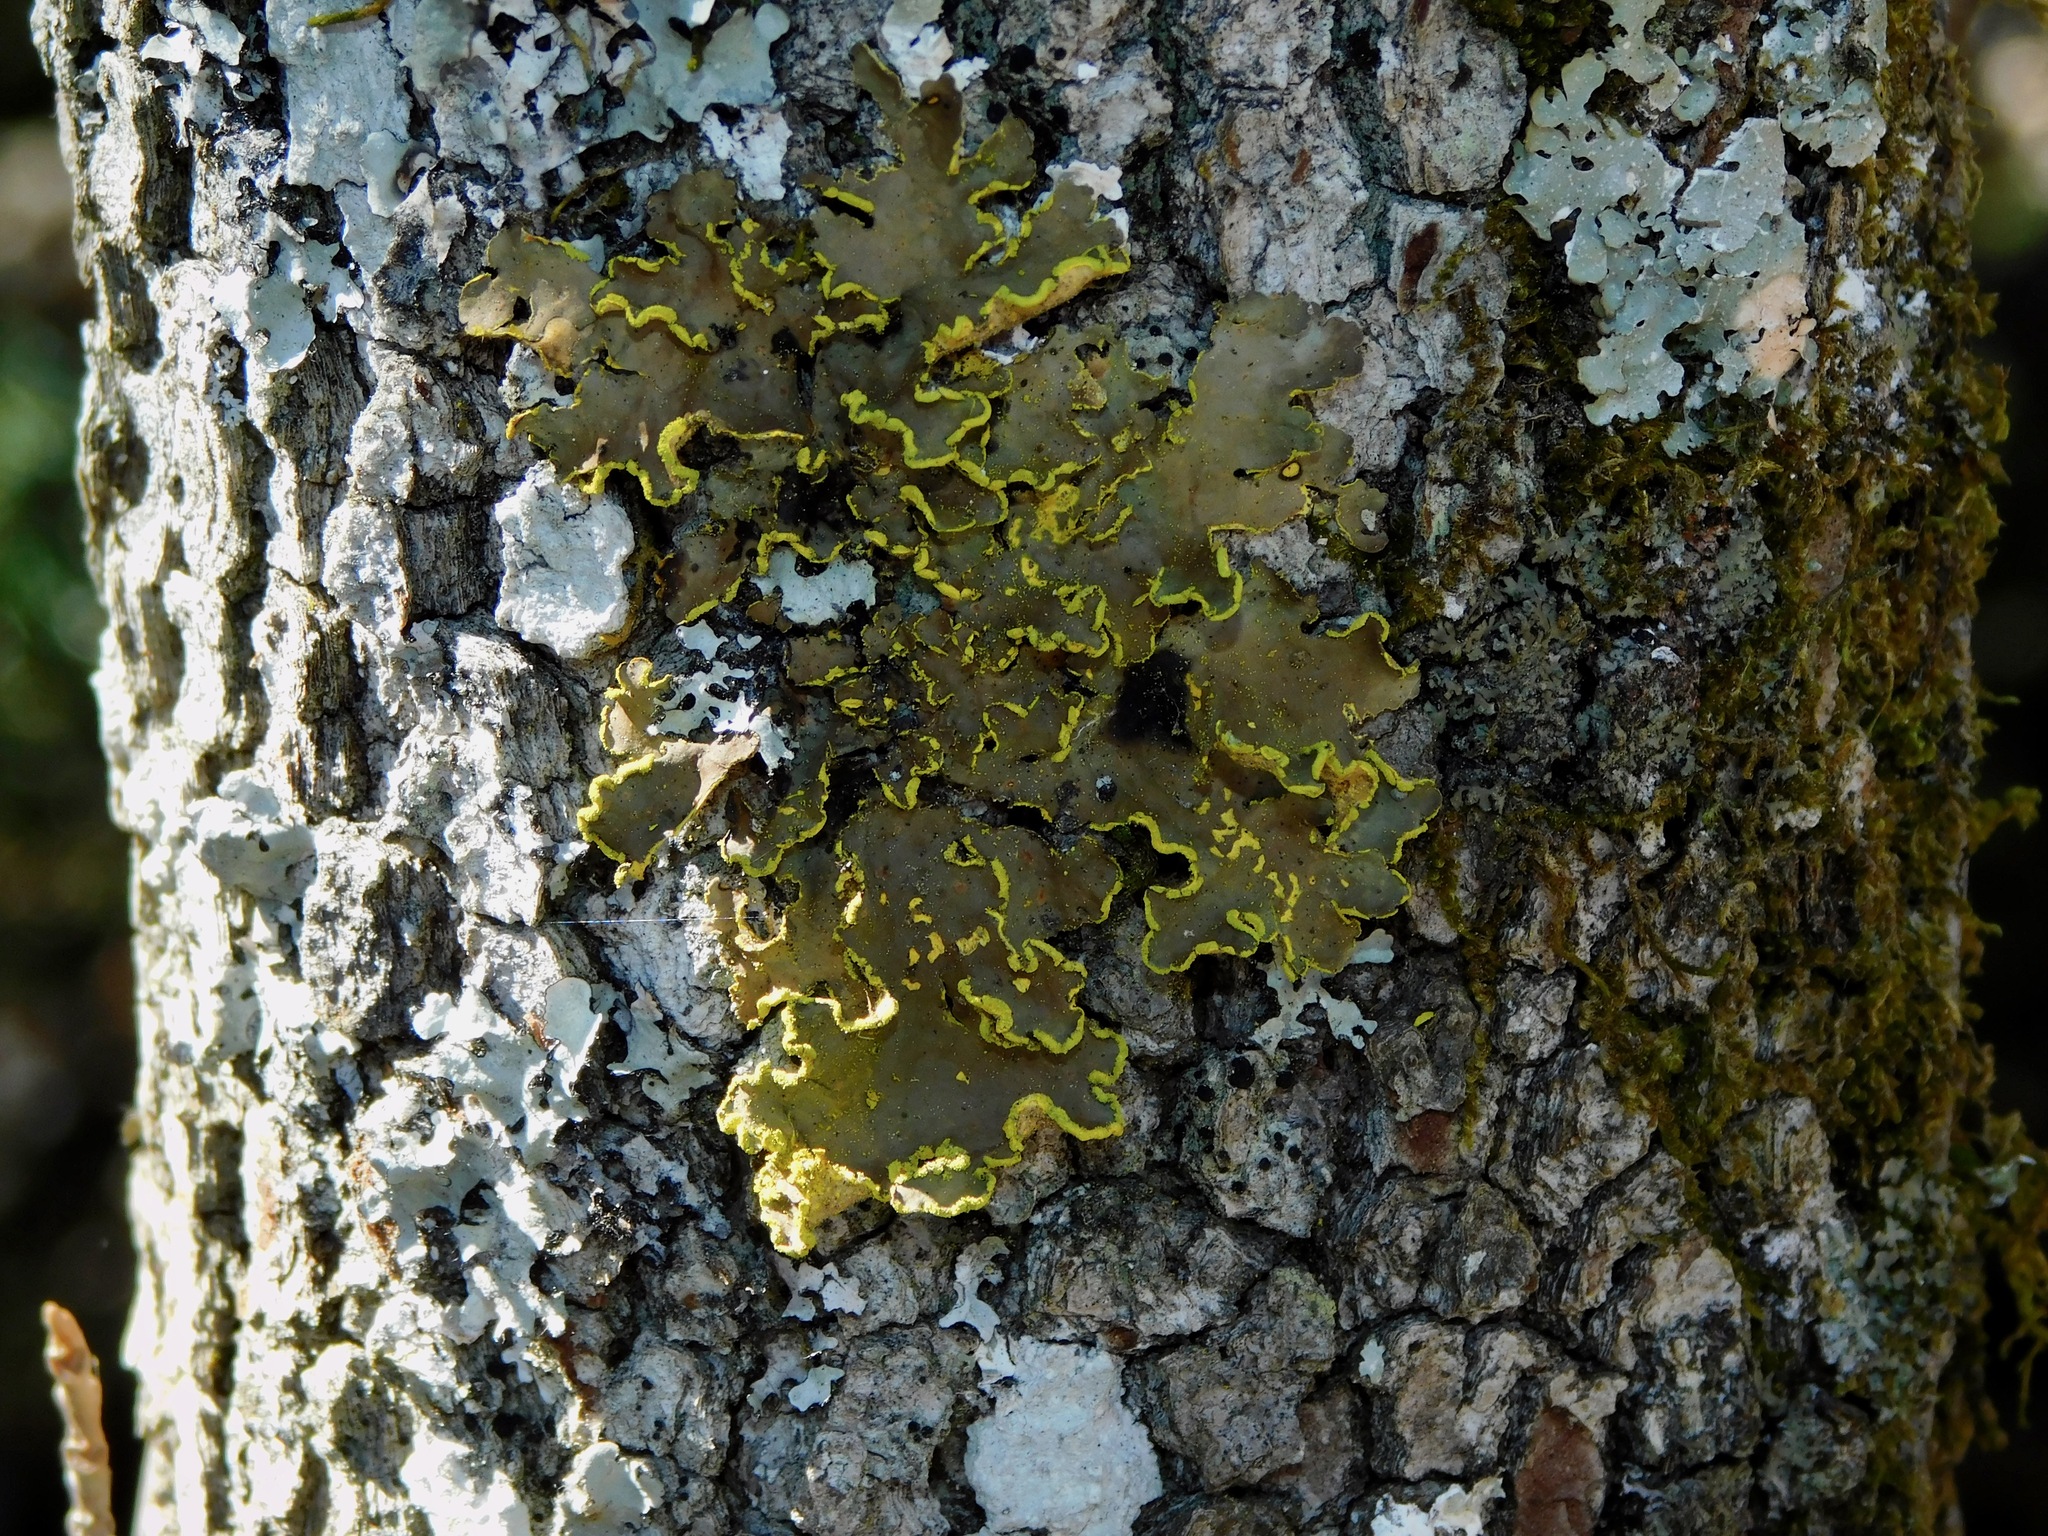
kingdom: Fungi
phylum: Ascomycota
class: Lecanoromycetes
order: Peltigerales
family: Lobariaceae
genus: Pseudocyphellaria
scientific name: Pseudocyphellaria aurata
